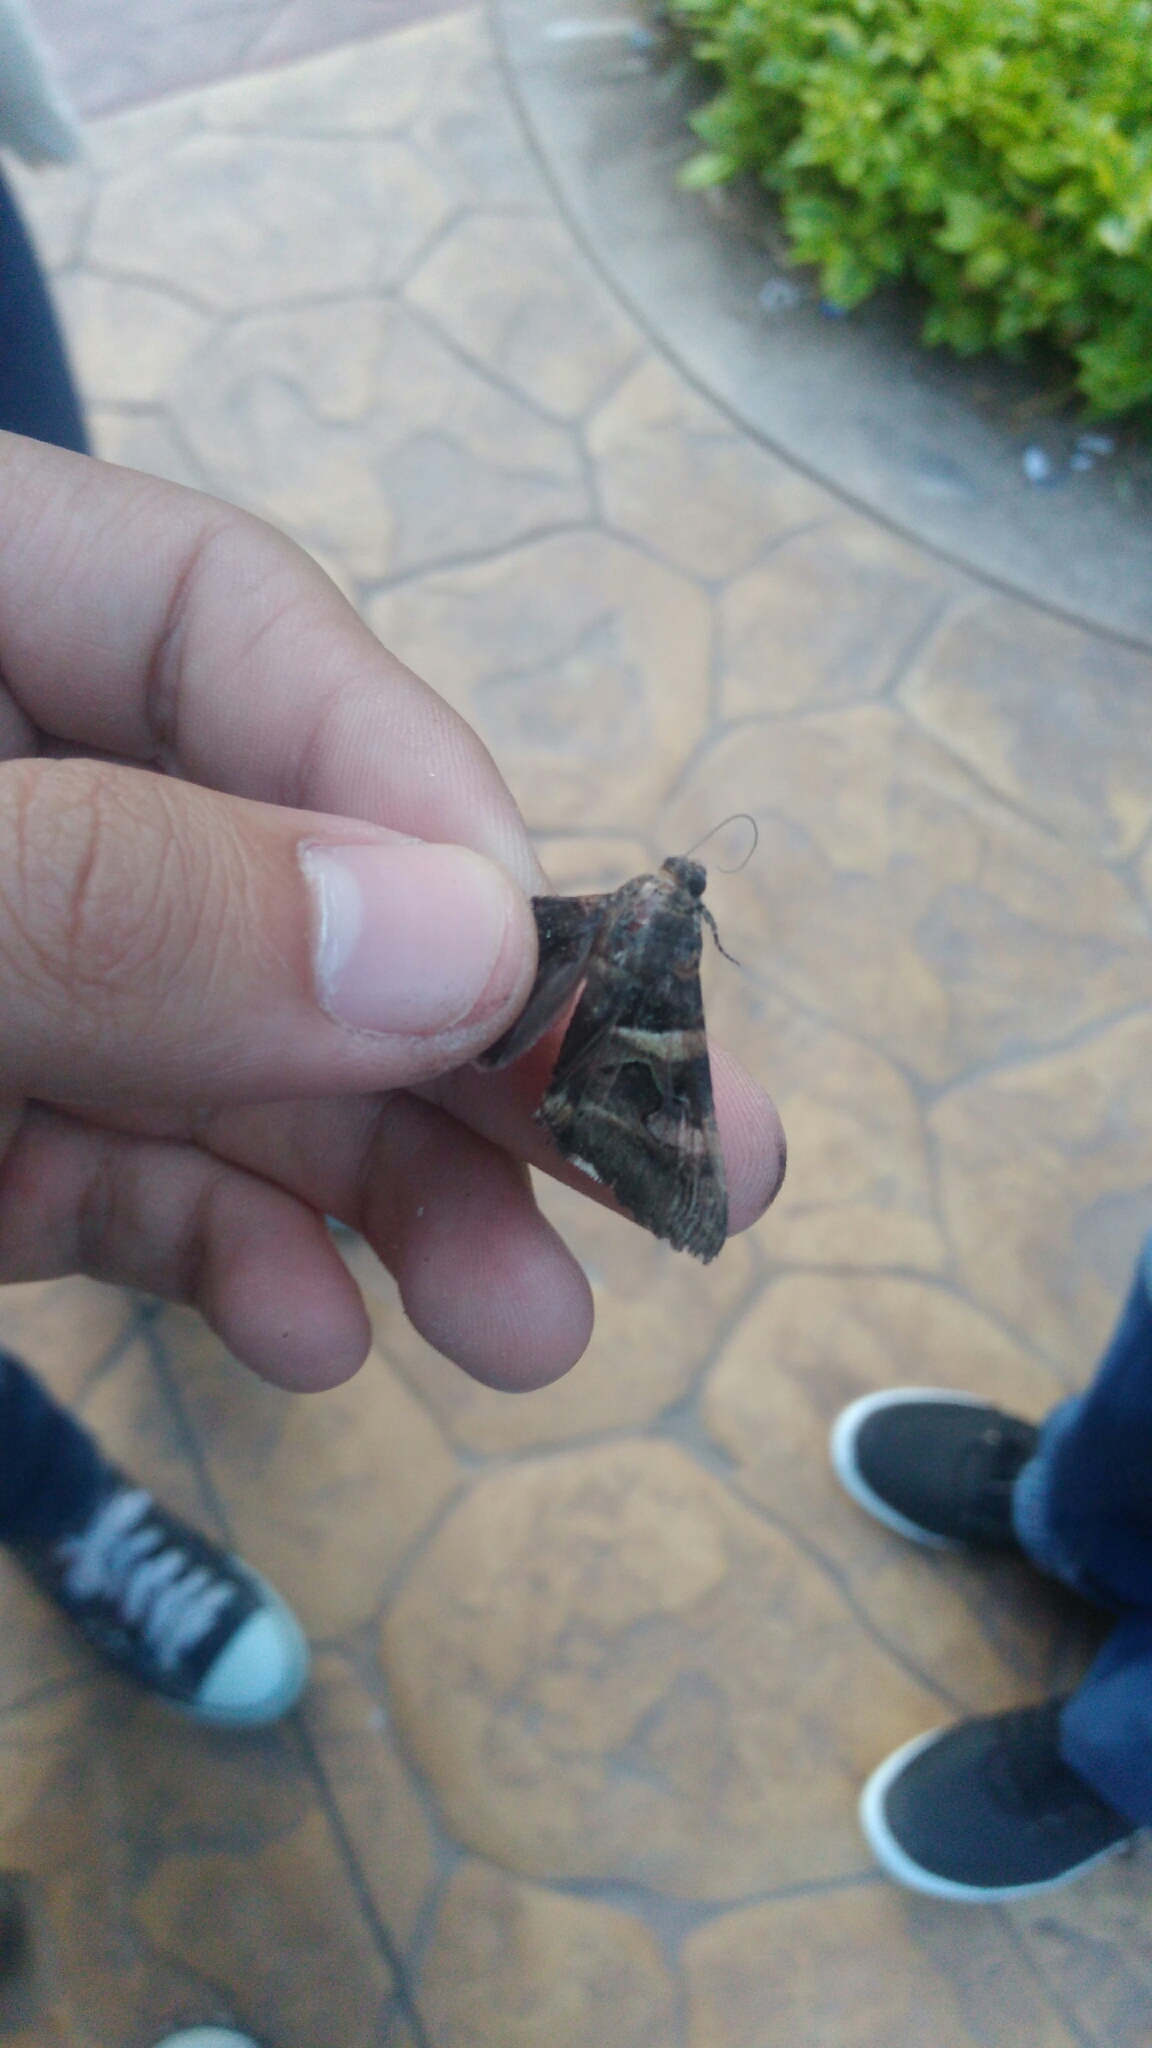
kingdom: Animalia
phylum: Arthropoda
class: Insecta
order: Lepidoptera
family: Erebidae
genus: Melipotis
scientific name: Melipotis perpendicularis
